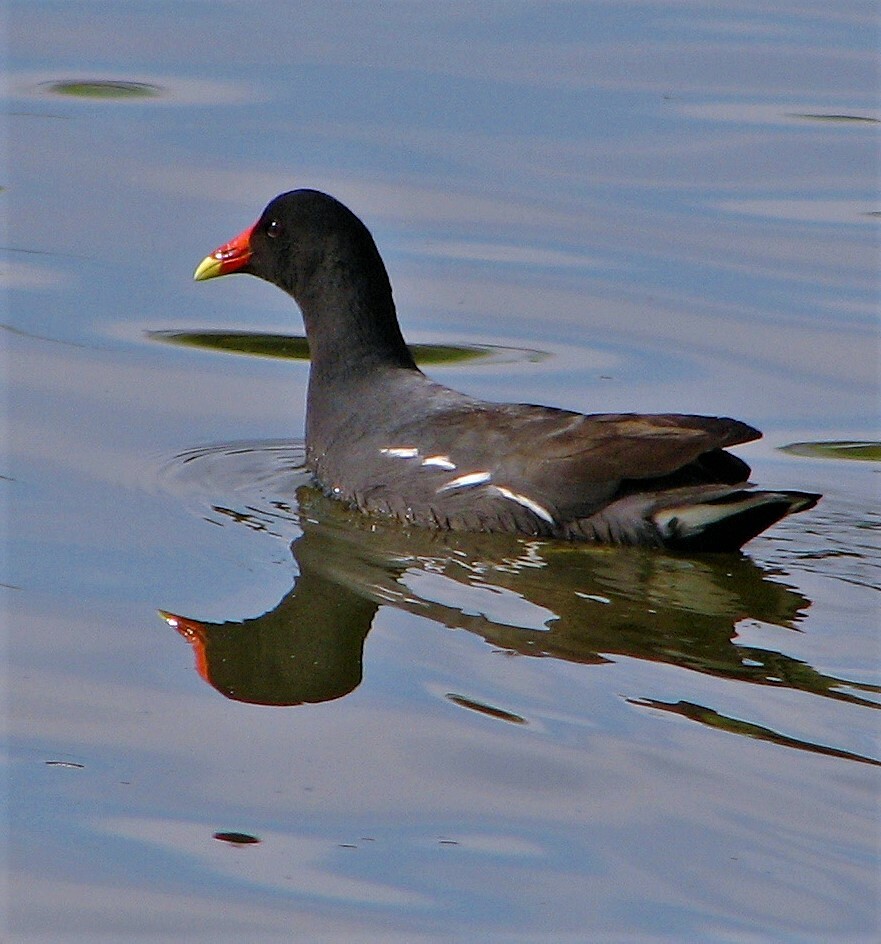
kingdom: Animalia
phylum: Chordata
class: Aves
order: Gruiformes
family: Rallidae
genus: Gallinula
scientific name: Gallinula chloropus
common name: Common moorhen
